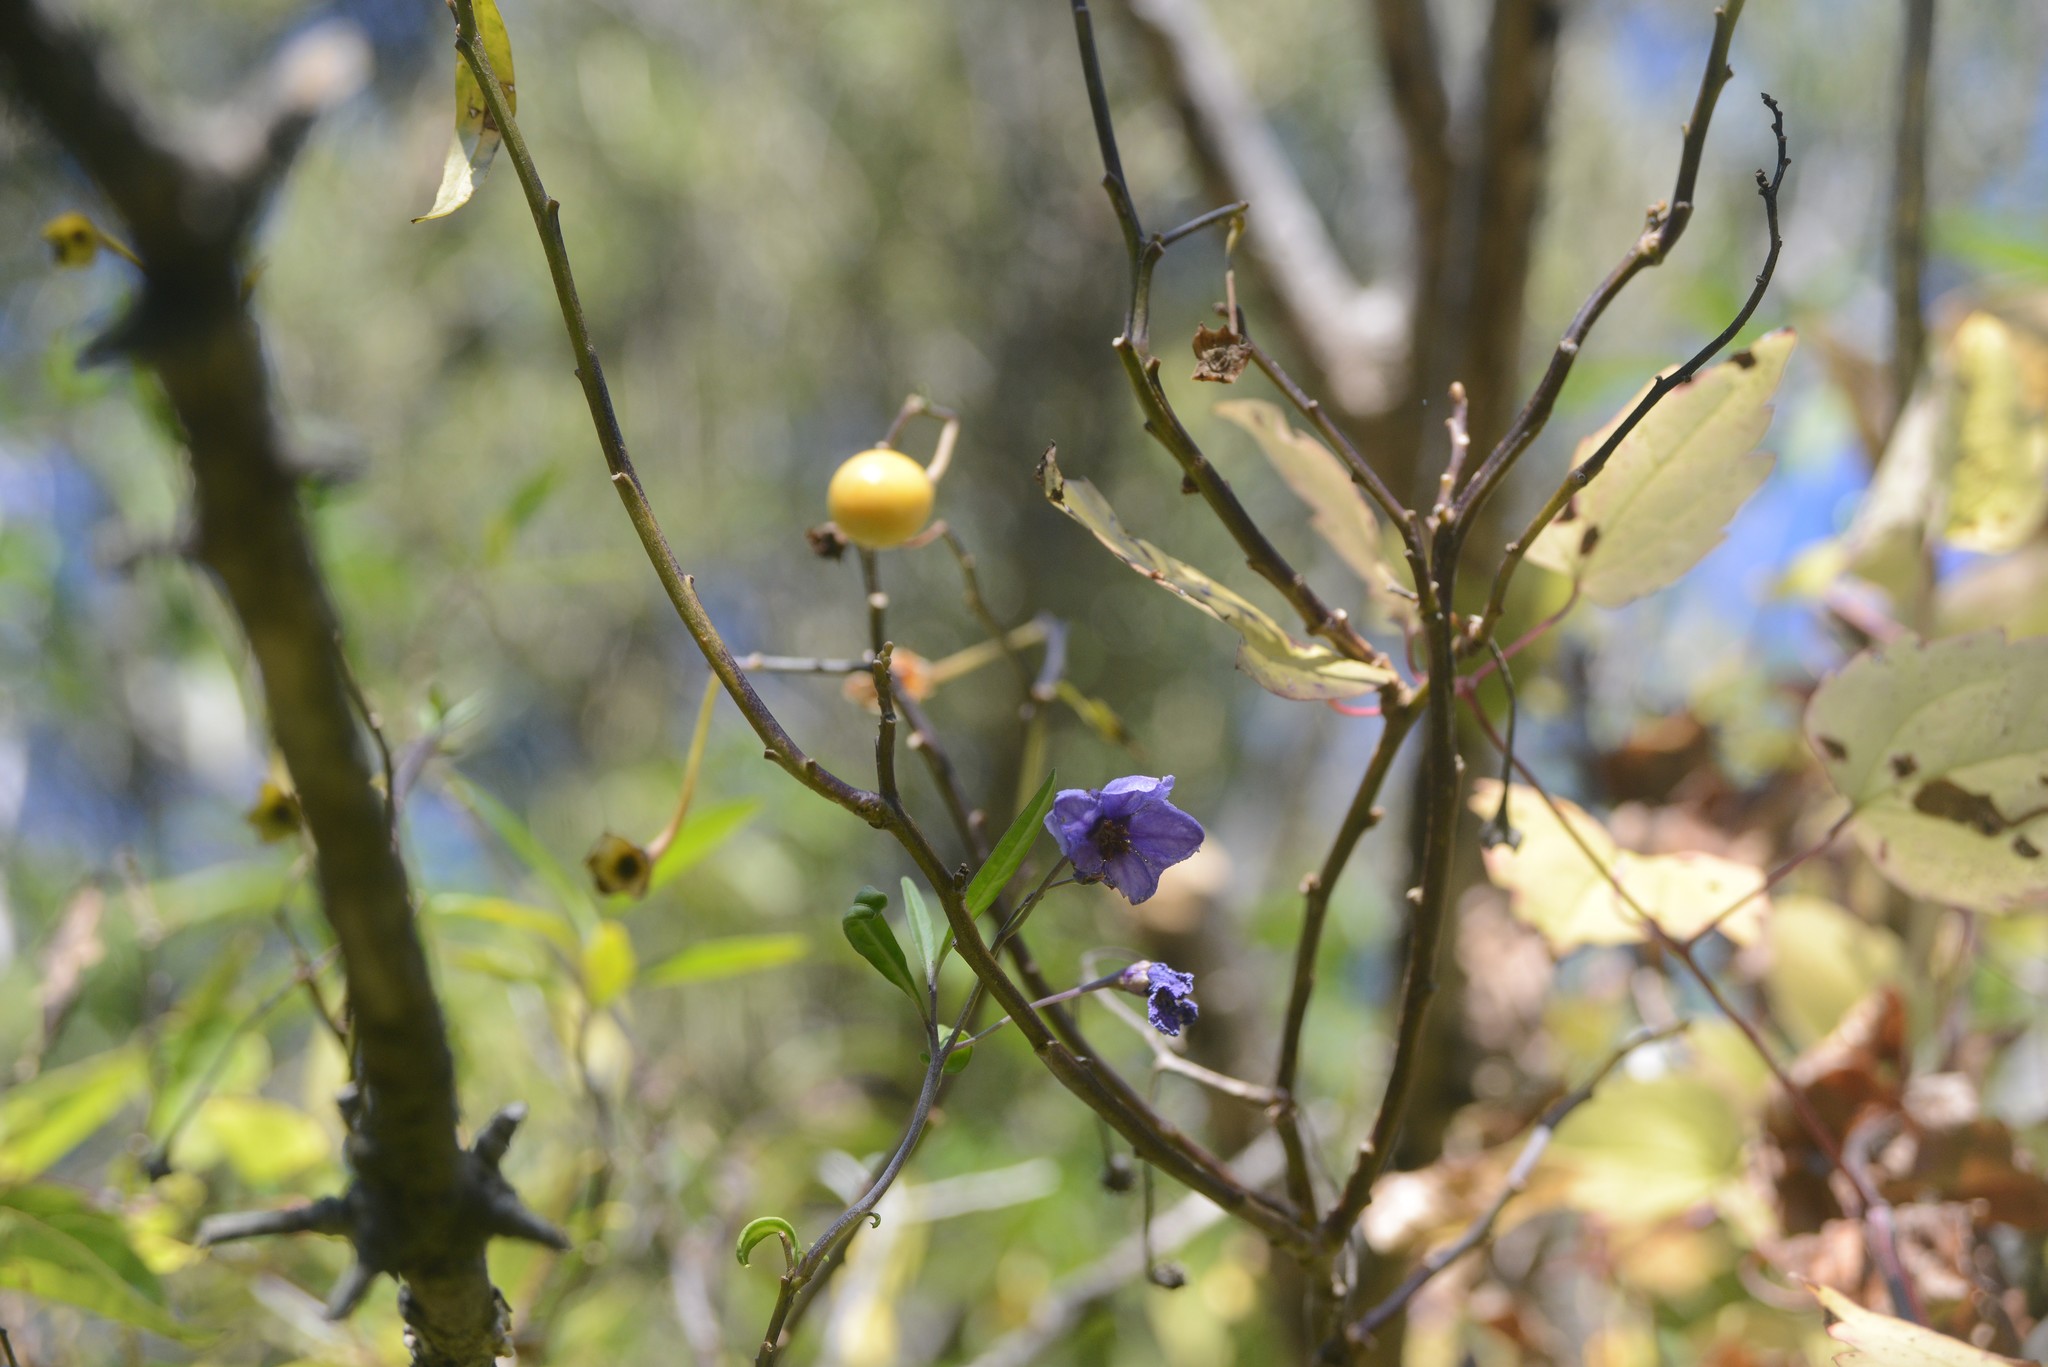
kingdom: Plantae
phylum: Tracheophyta
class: Magnoliopsida
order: Solanales
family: Solanaceae
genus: Solanum
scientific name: Solanum laciniatum
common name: Kangaroo-apple
